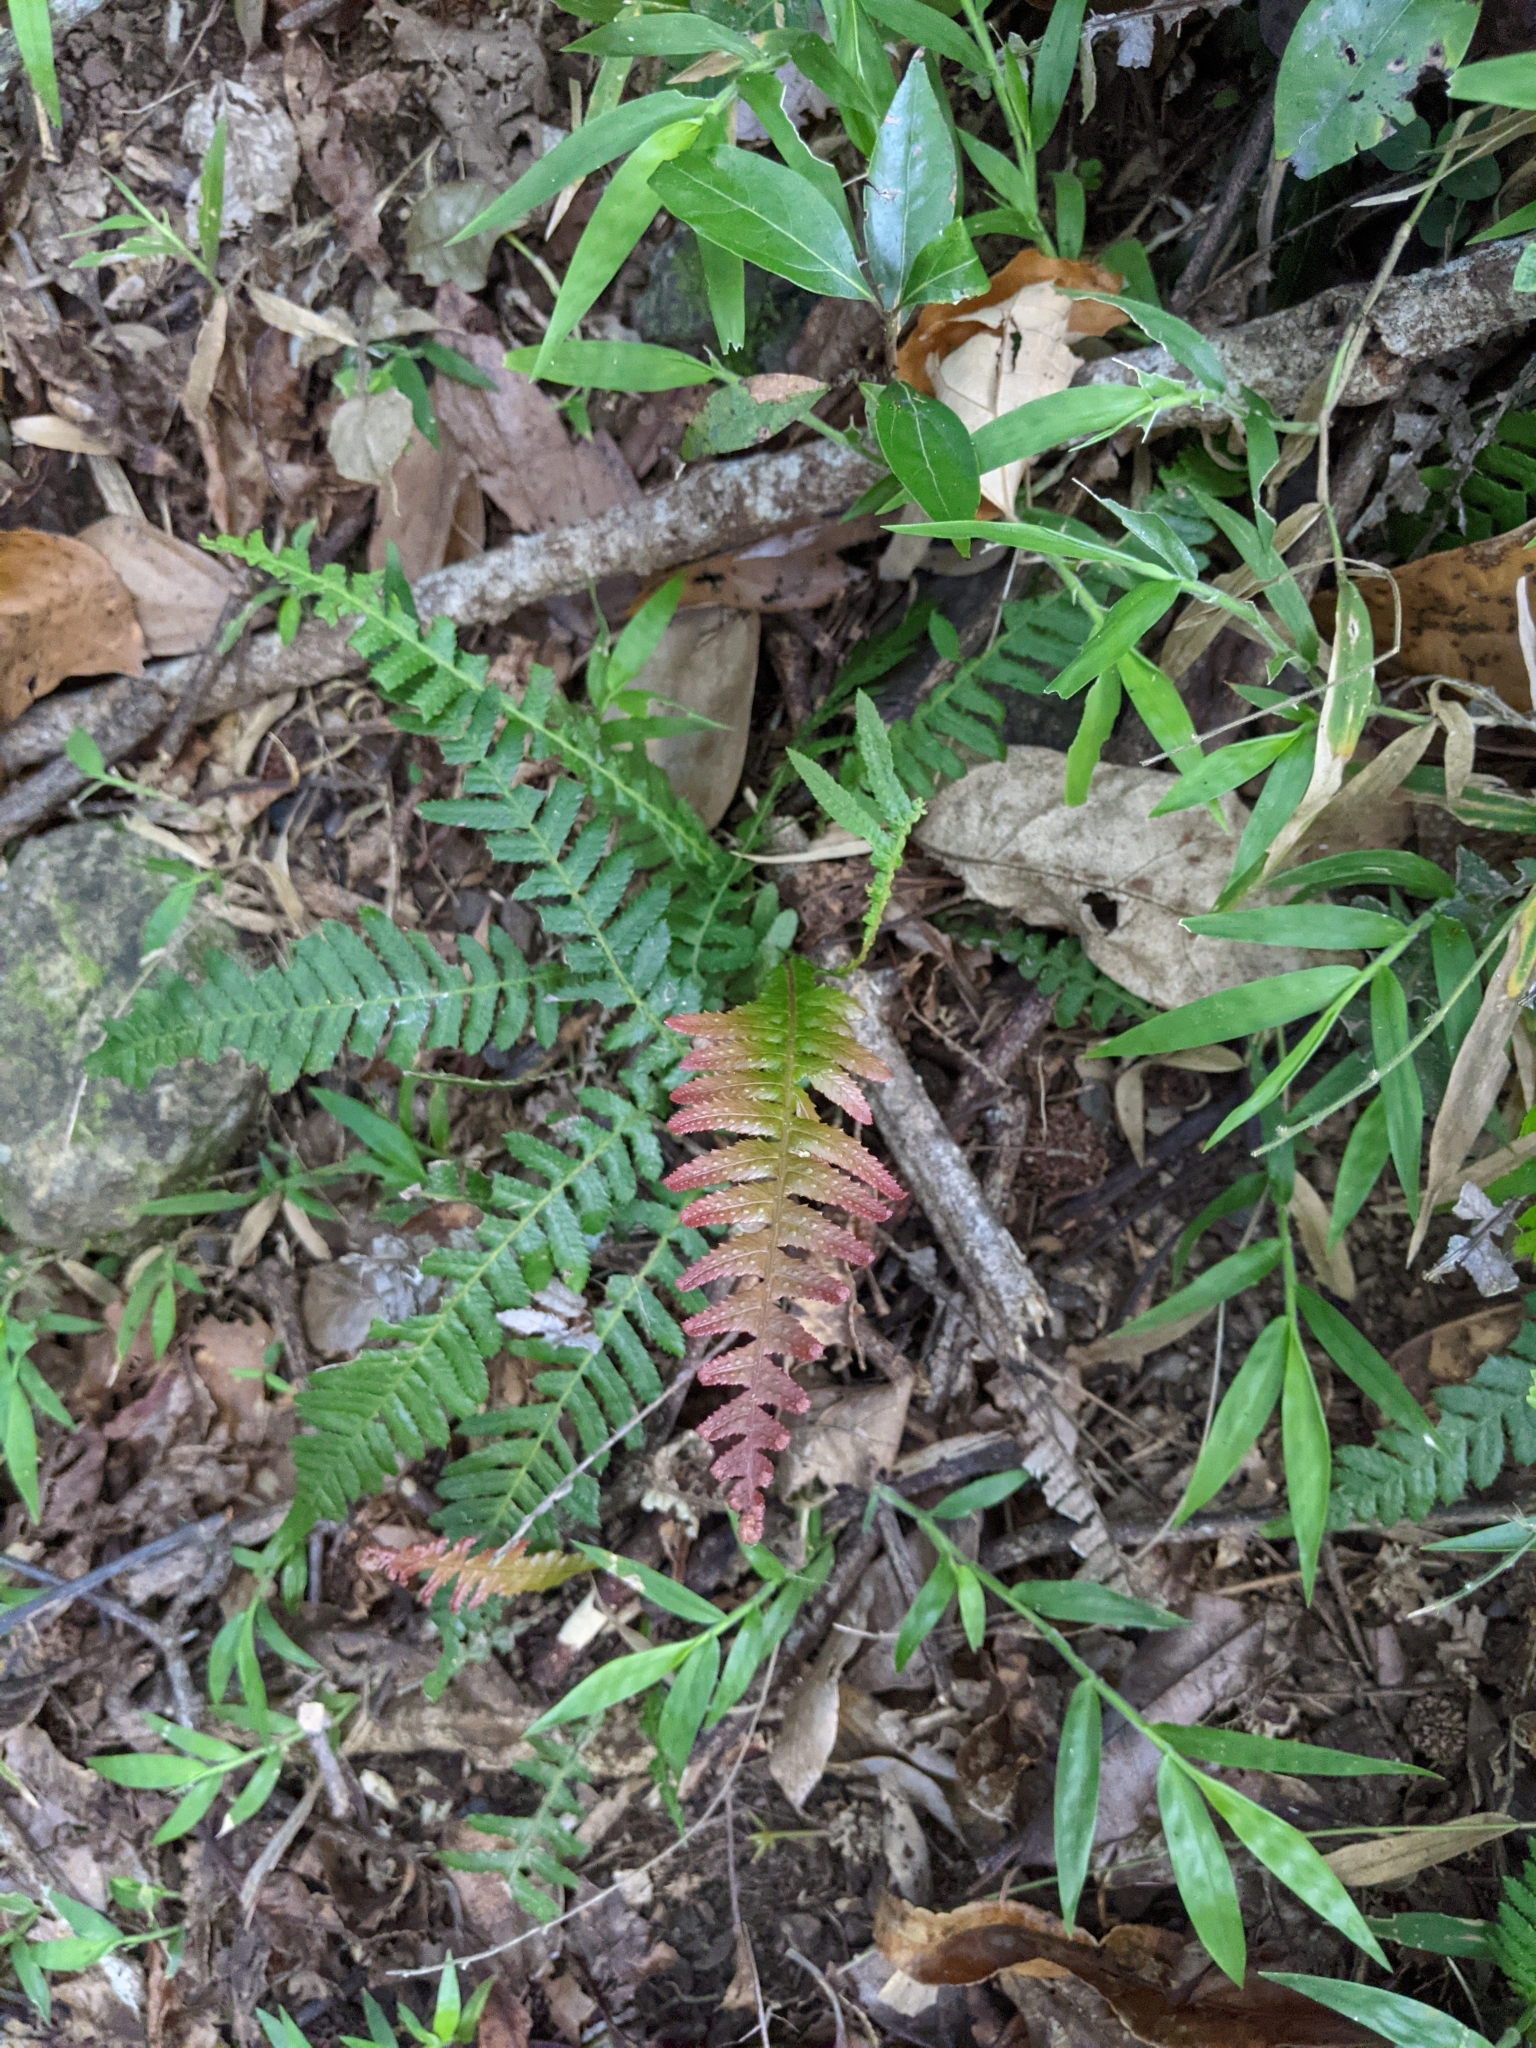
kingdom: Plantae
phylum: Tracheophyta
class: Polypodiopsida
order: Polypodiales
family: Blechnaceae
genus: Doodia
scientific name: Doodia aspera
